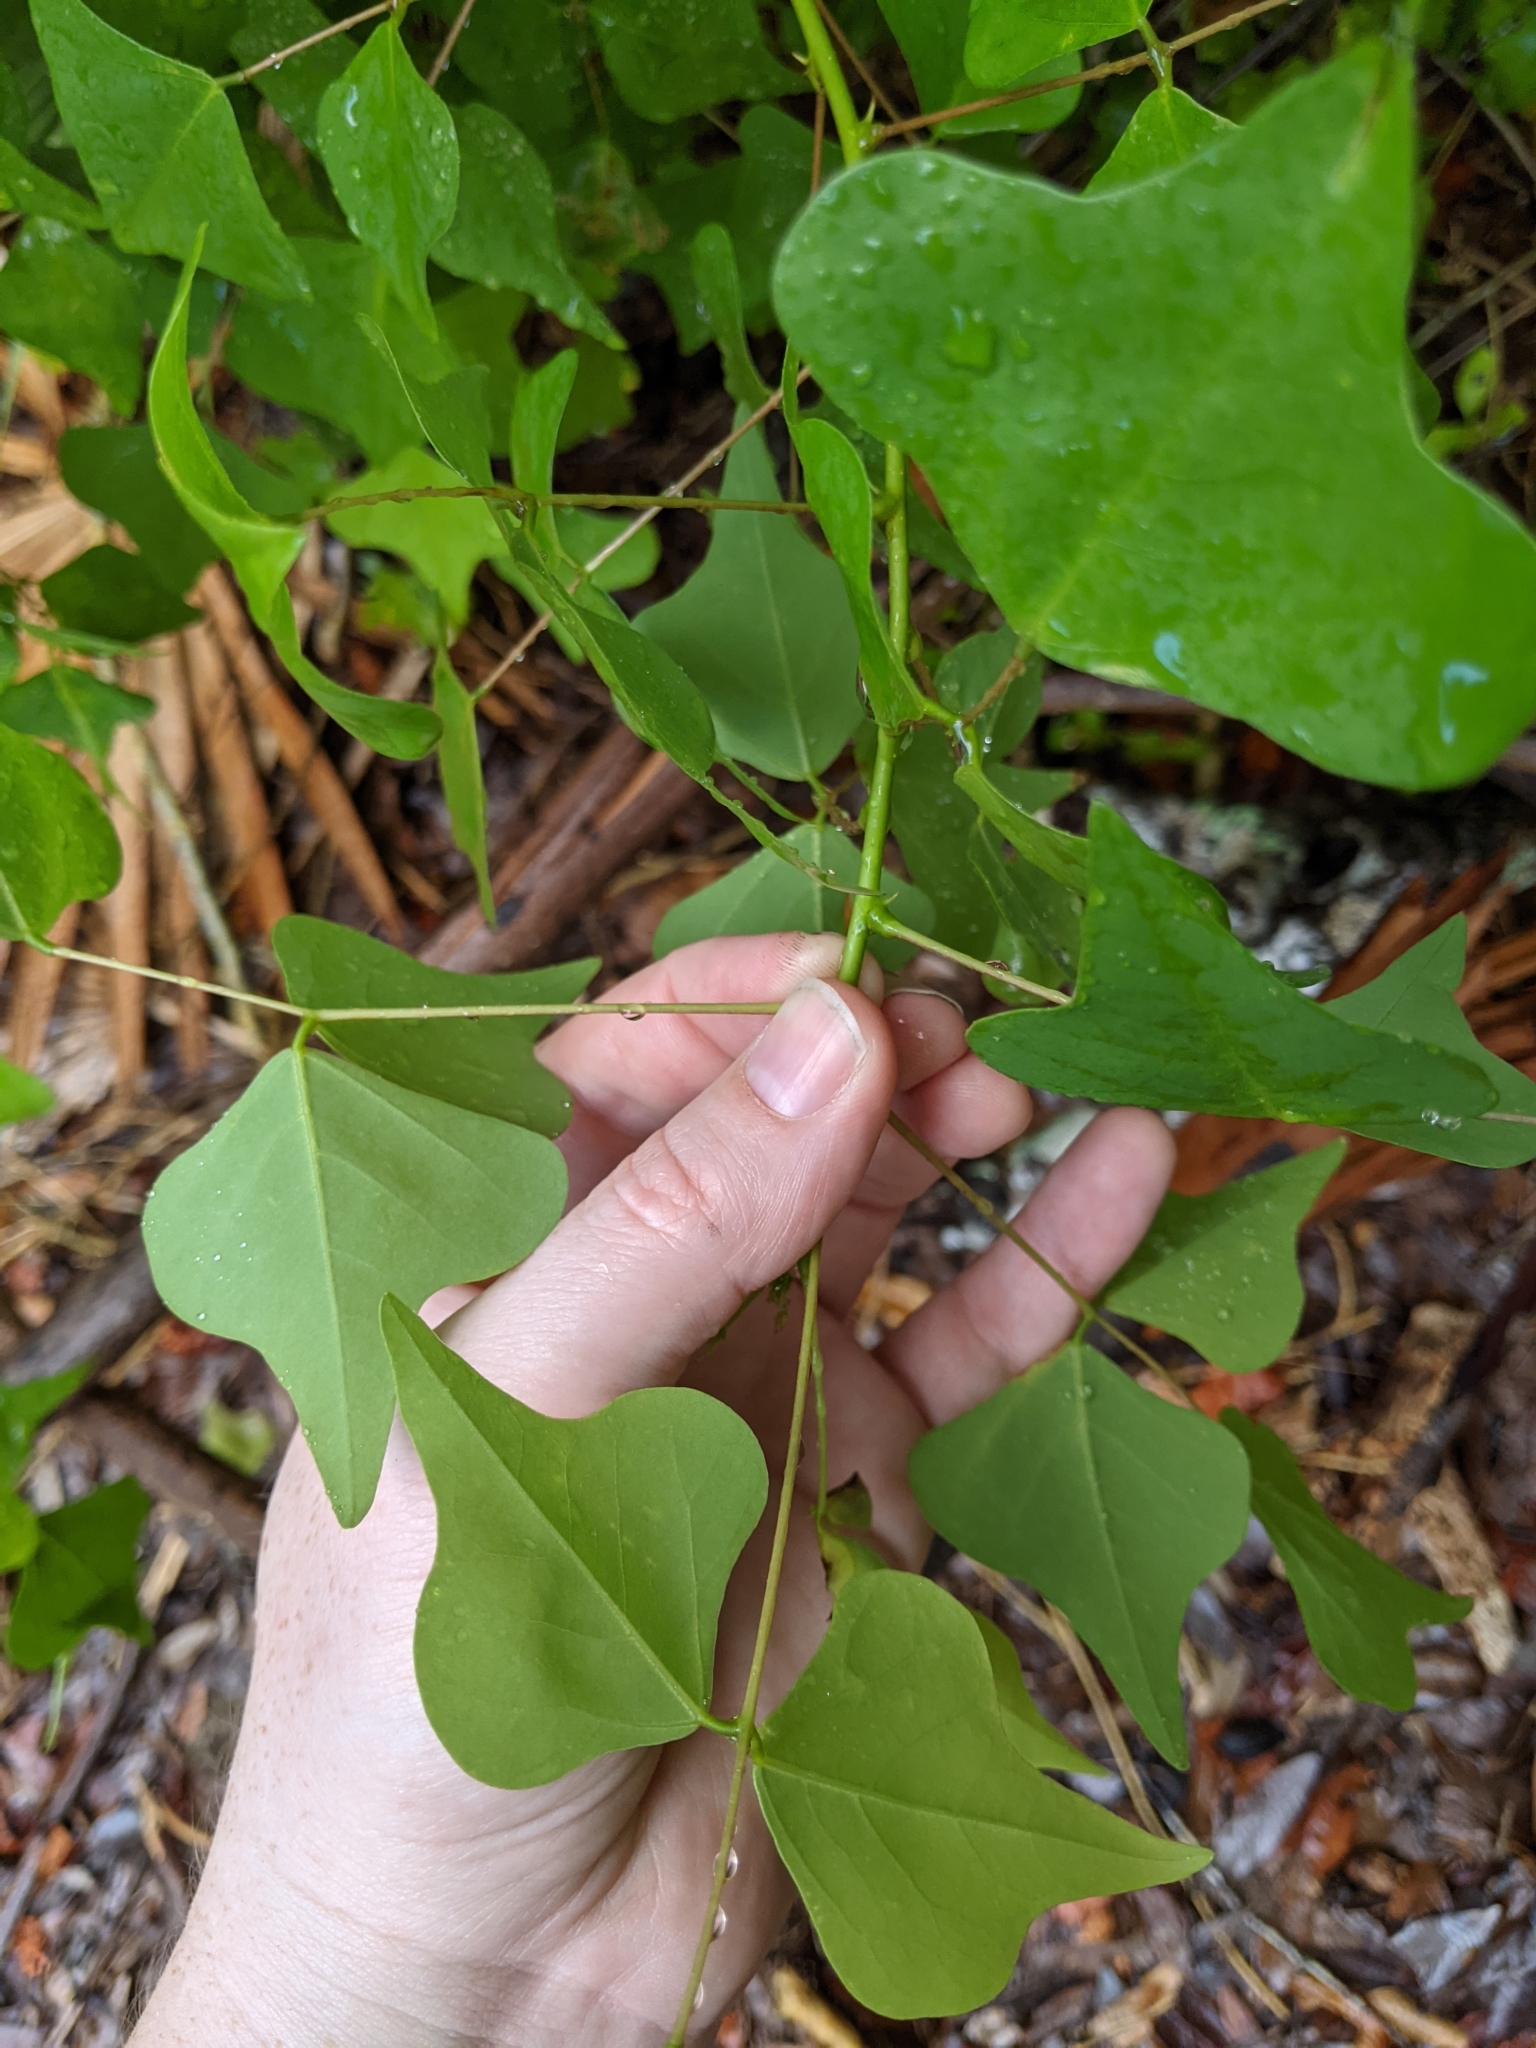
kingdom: Plantae
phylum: Tracheophyta
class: Magnoliopsida
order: Fabales
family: Fabaceae
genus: Erythrina
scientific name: Erythrina herbacea
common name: Coral-bean
